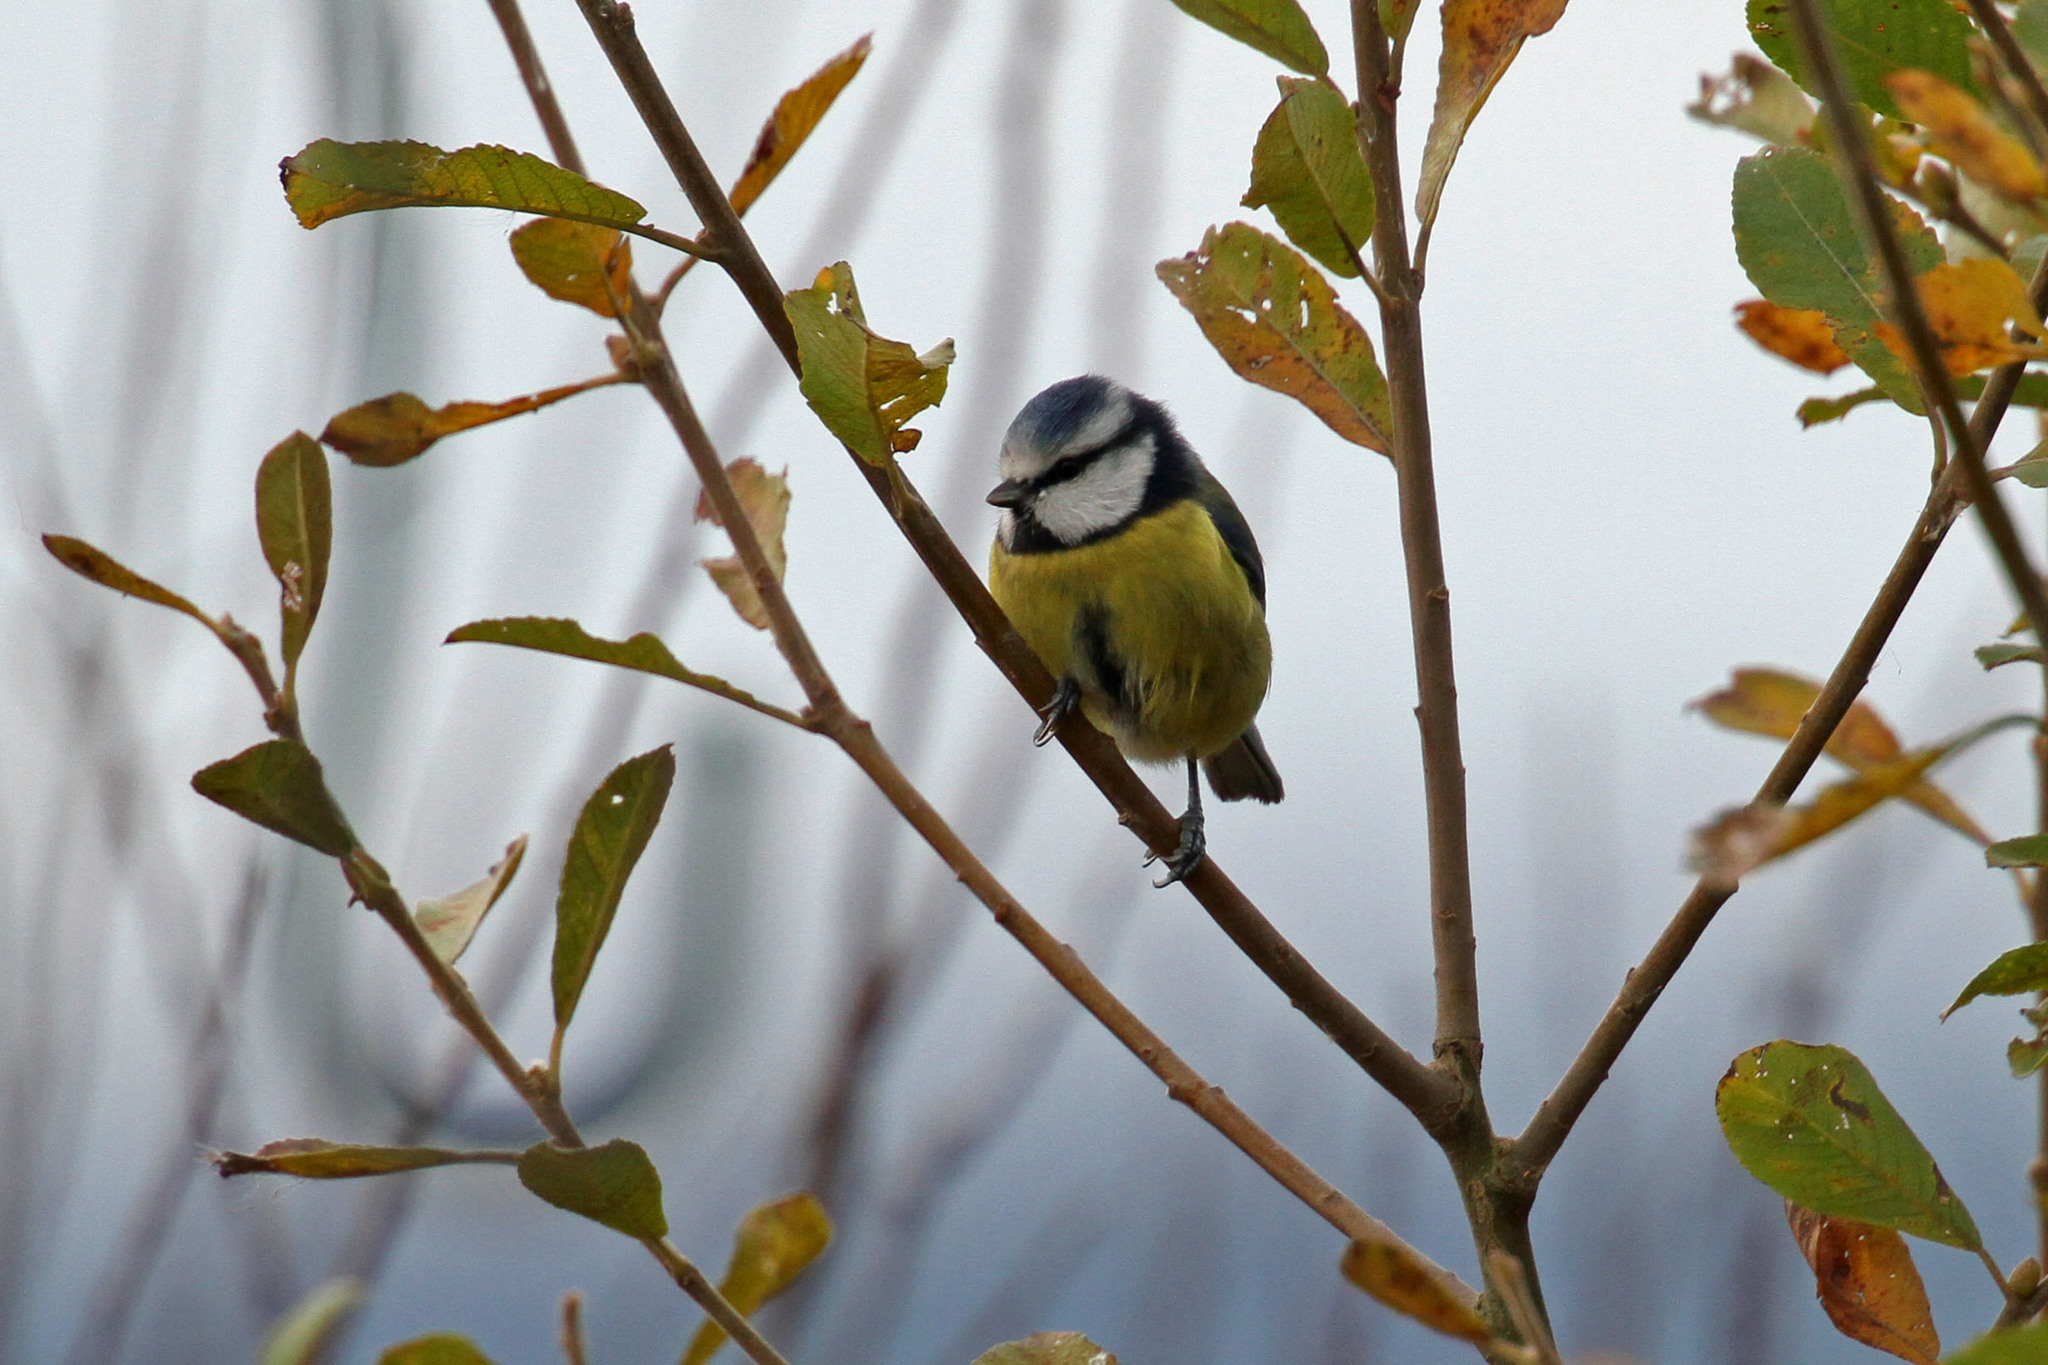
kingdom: Animalia
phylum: Chordata
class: Aves
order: Passeriformes
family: Paridae
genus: Cyanistes
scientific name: Cyanistes caeruleus
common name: Eurasian blue tit
